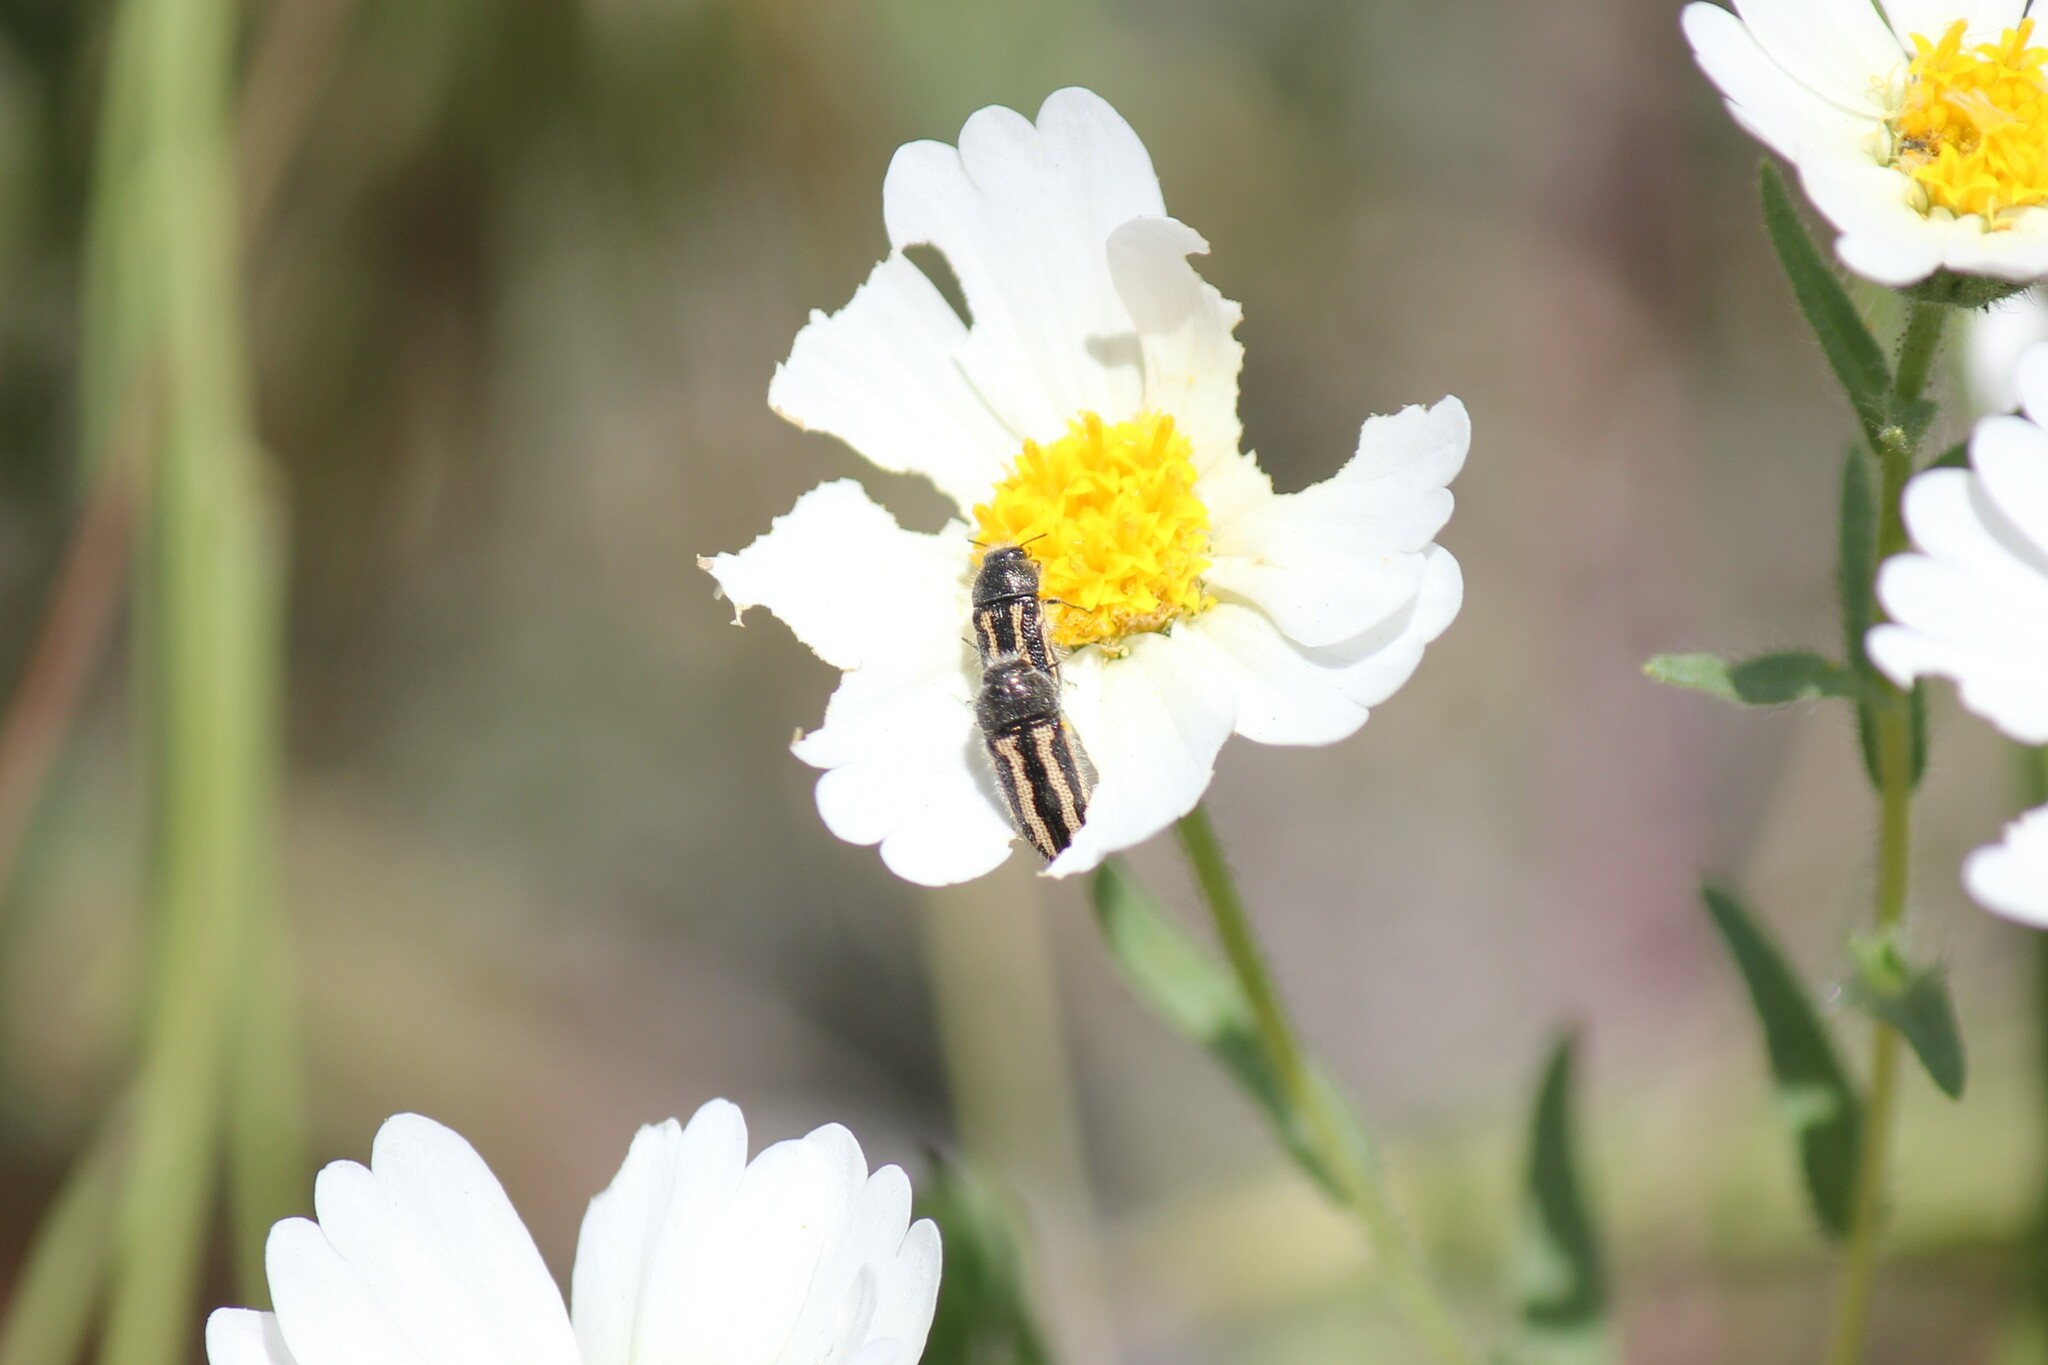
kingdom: Animalia
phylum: Arthropoda
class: Insecta
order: Coleoptera
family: Buprestidae
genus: Acmaeodera
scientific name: Acmaeodera nigrovittata
